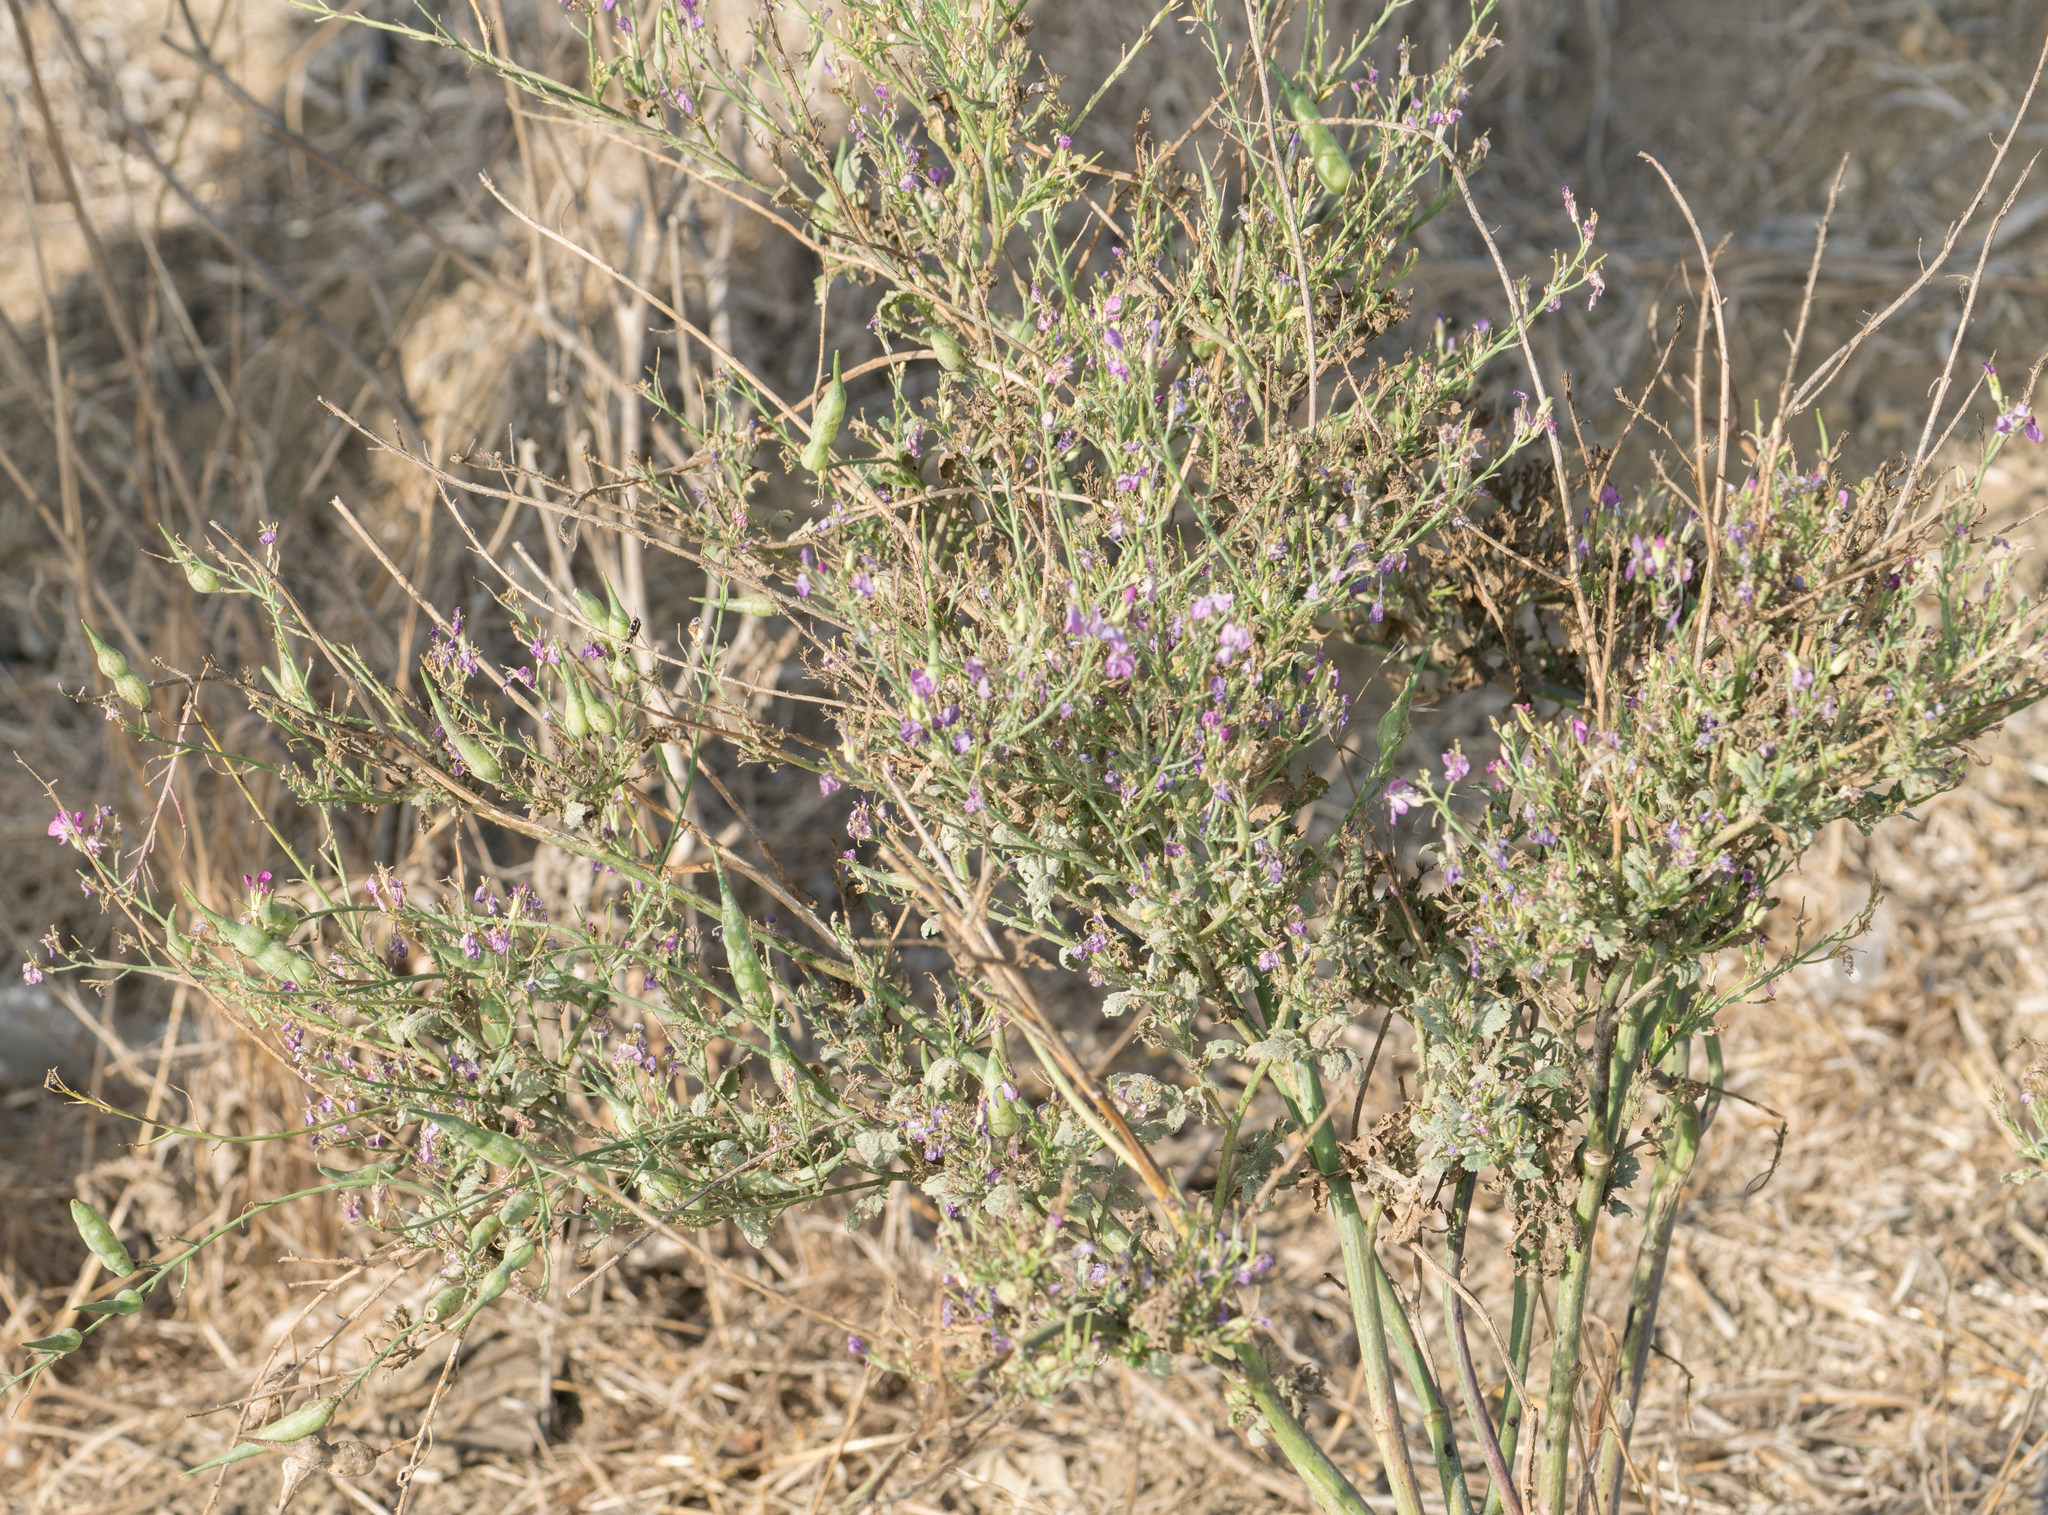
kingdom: Plantae
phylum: Tracheophyta
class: Magnoliopsida
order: Brassicales
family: Brassicaceae
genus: Raphanus
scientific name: Raphanus sativus
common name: Cultivated radish
